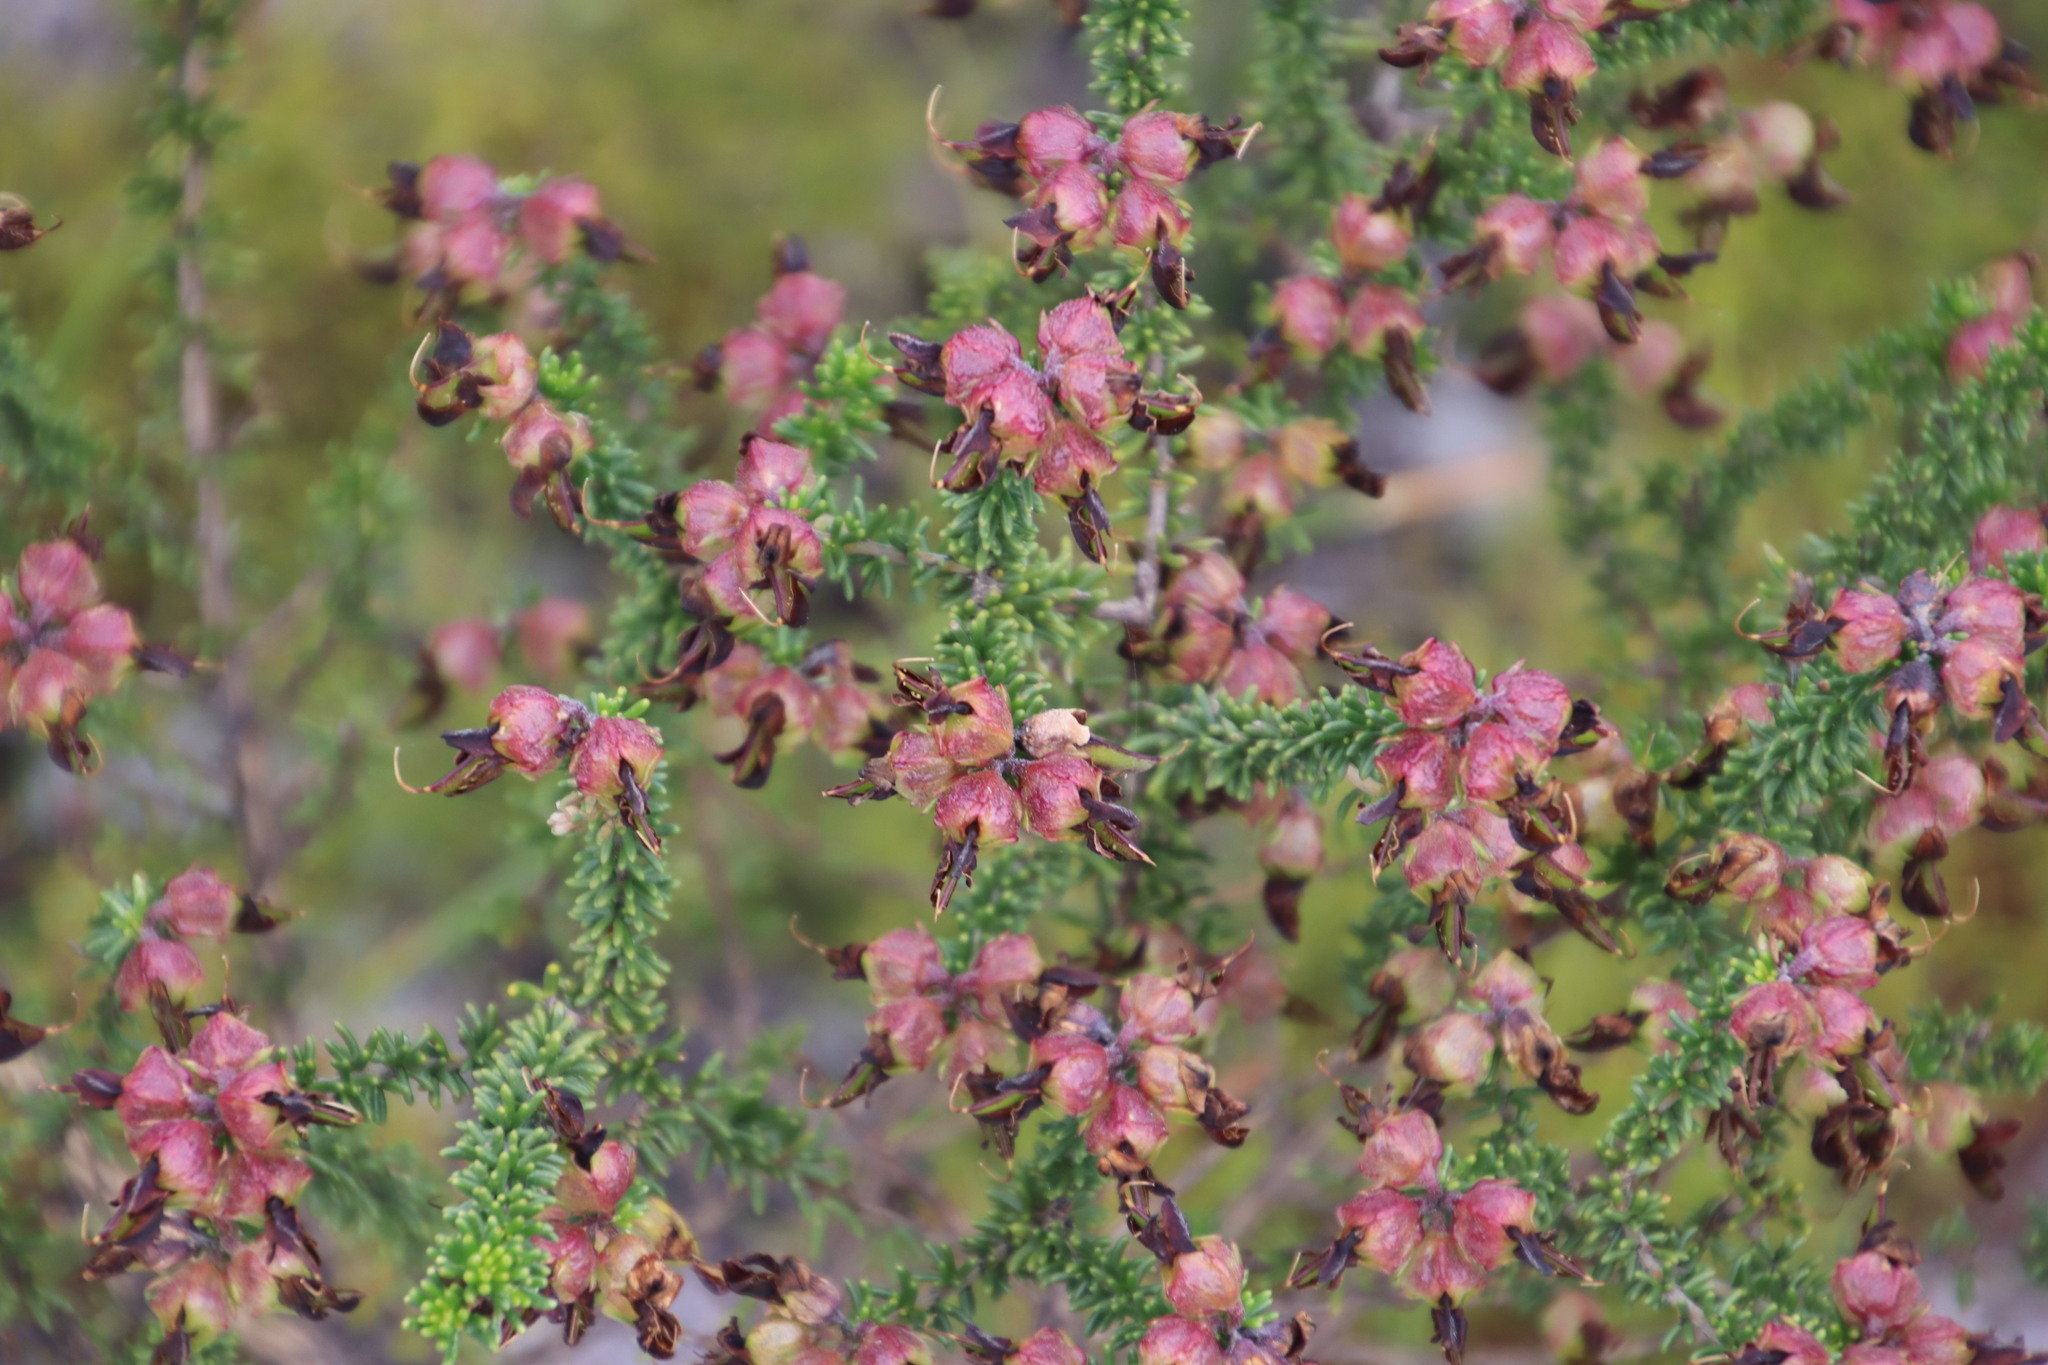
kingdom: Plantae
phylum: Tracheophyta
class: Magnoliopsida
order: Fabales
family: Fabaceae
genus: Aspalathus
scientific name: Aspalathus carnosa
